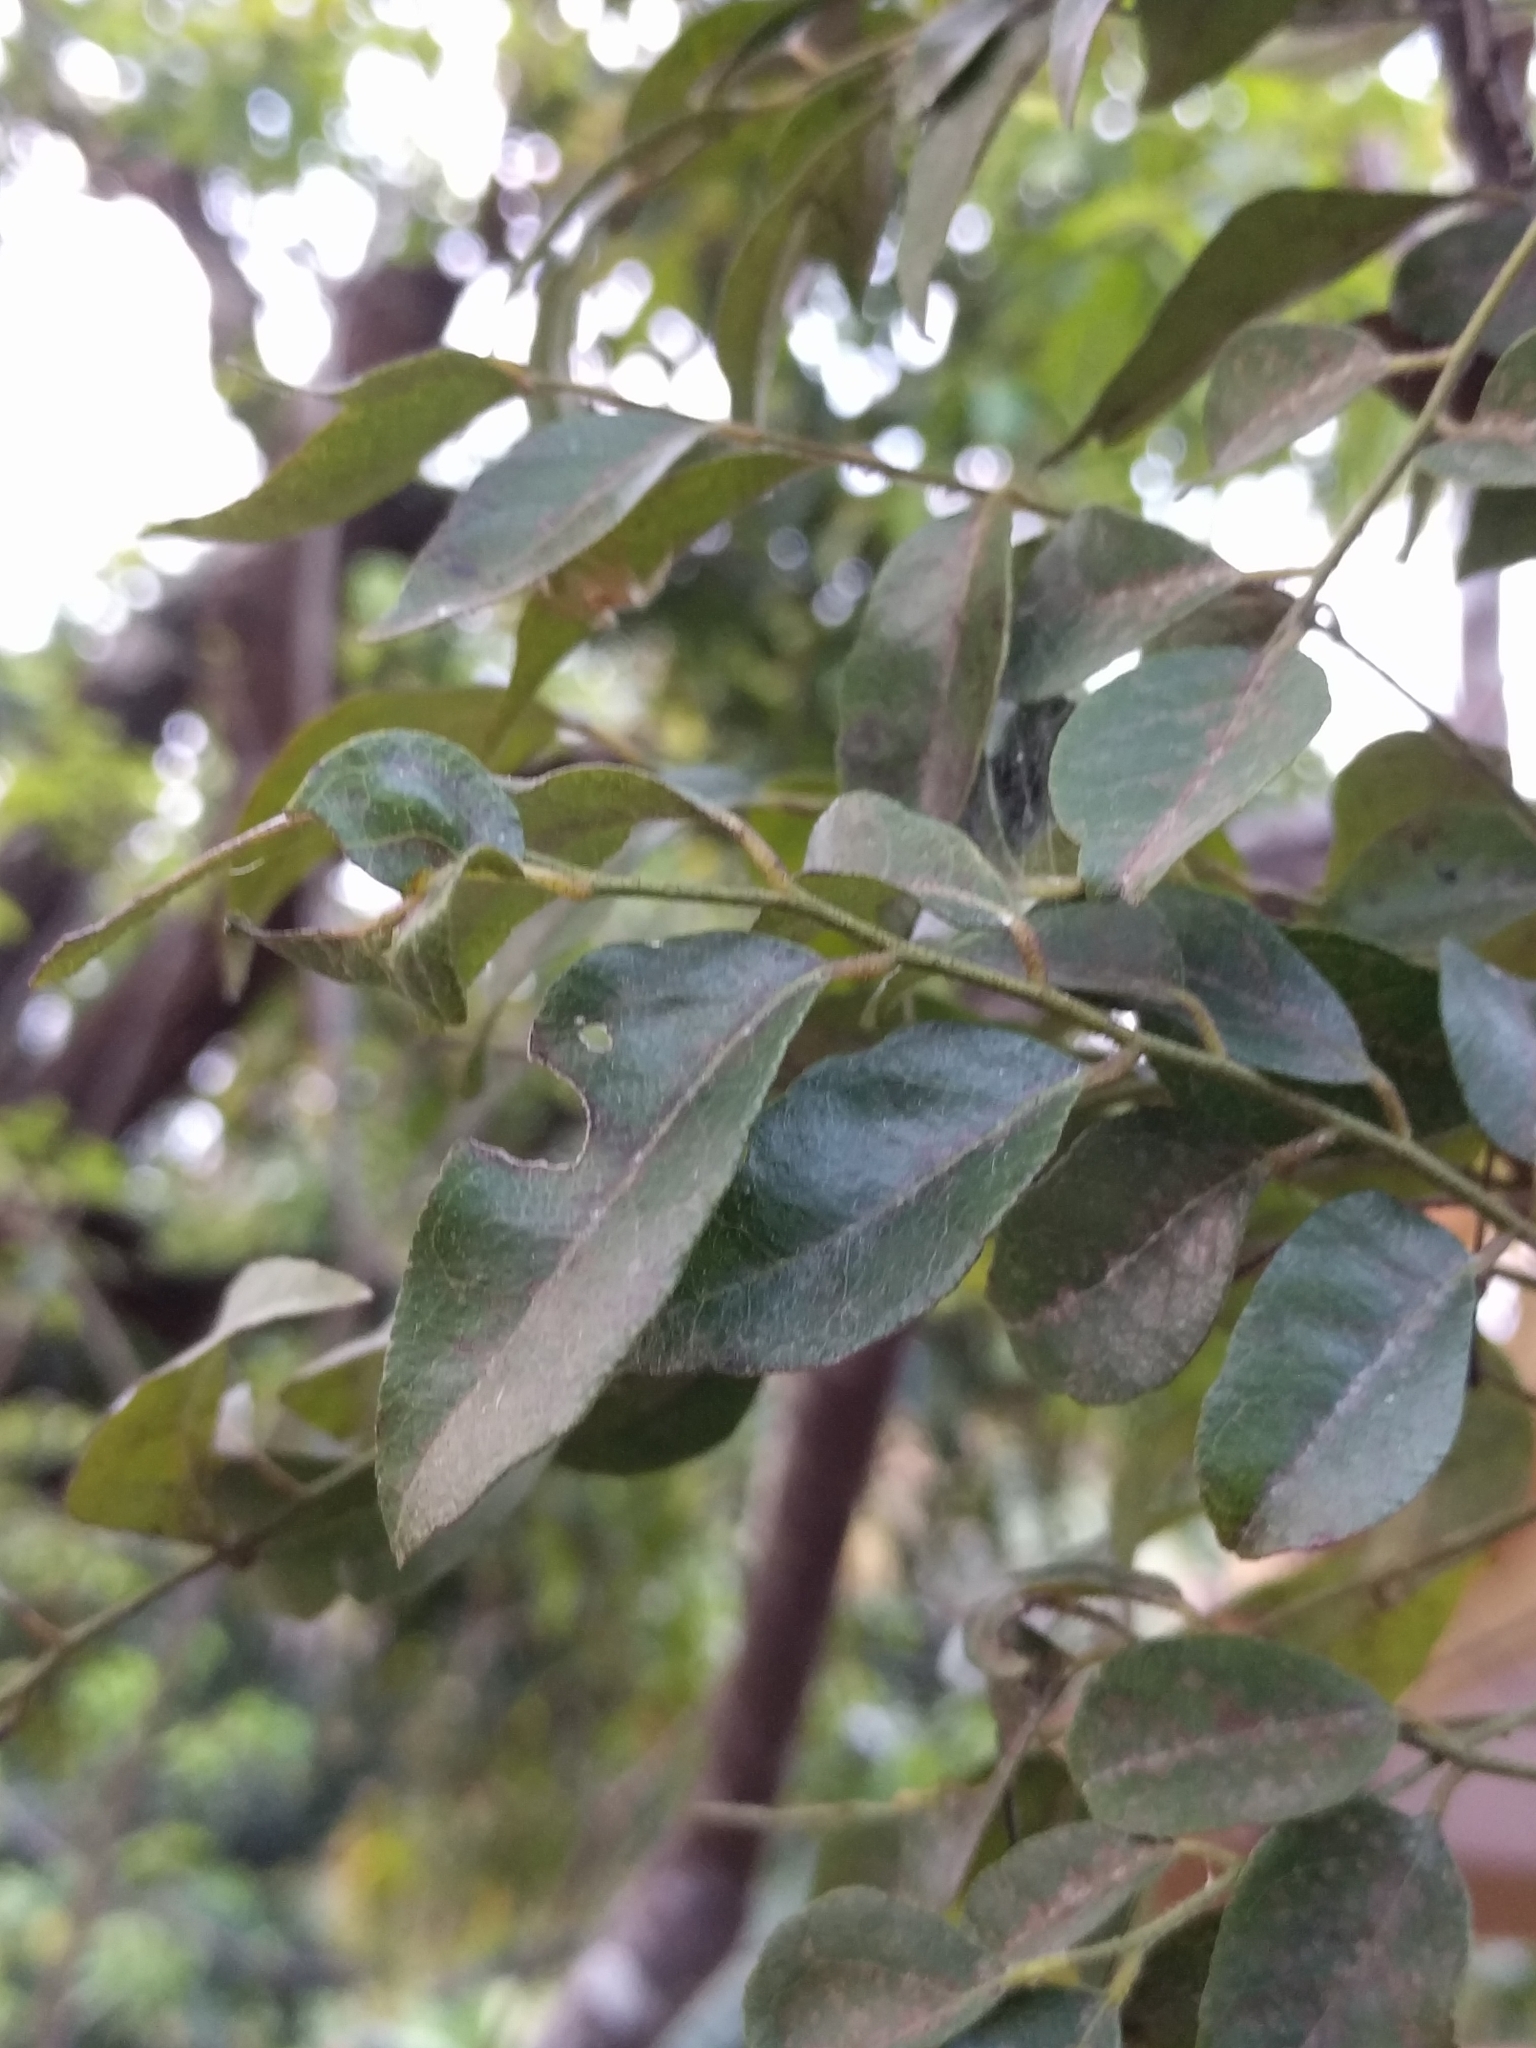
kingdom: Plantae
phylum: Tracheophyta
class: Magnoliopsida
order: Sapindales
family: Rutaceae
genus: Murraya
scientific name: Murraya koenigii
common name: Curry-plant
